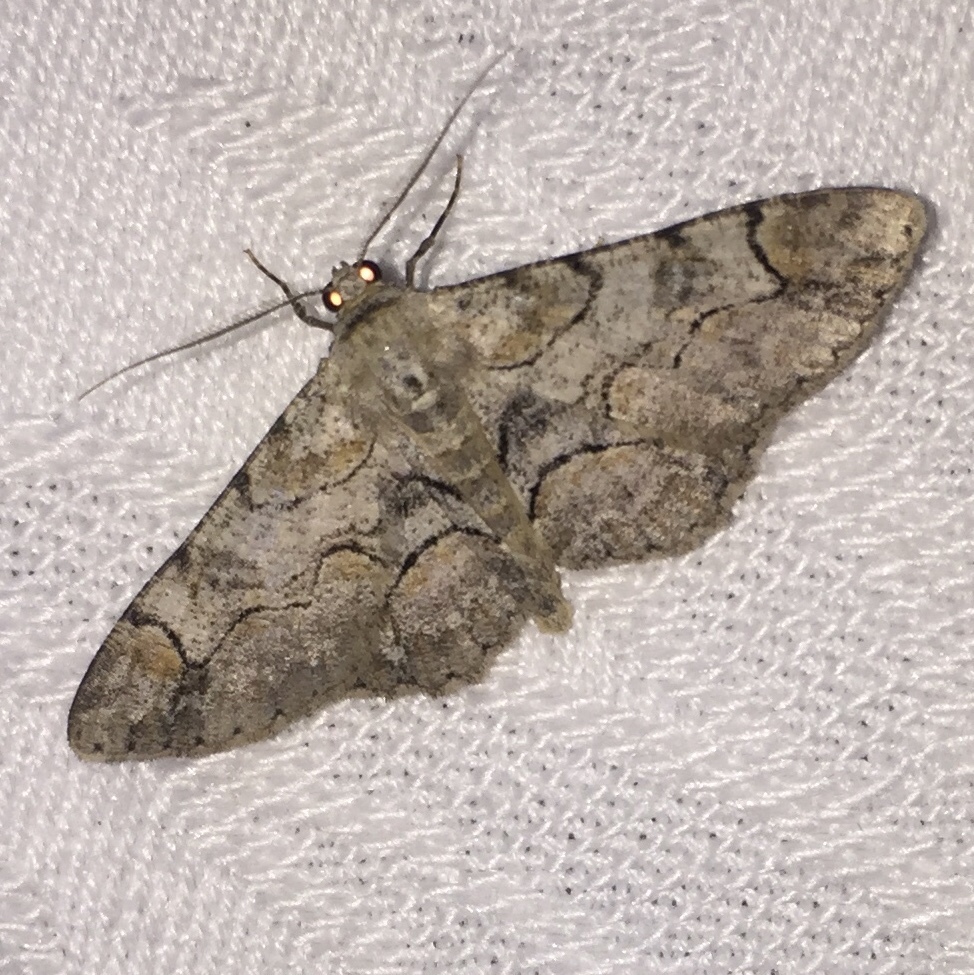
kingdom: Animalia
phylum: Arthropoda
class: Insecta
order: Lepidoptera
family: Geometridae
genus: Iridopsis
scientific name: Iridopsis larvaria
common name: Bent-line gray
